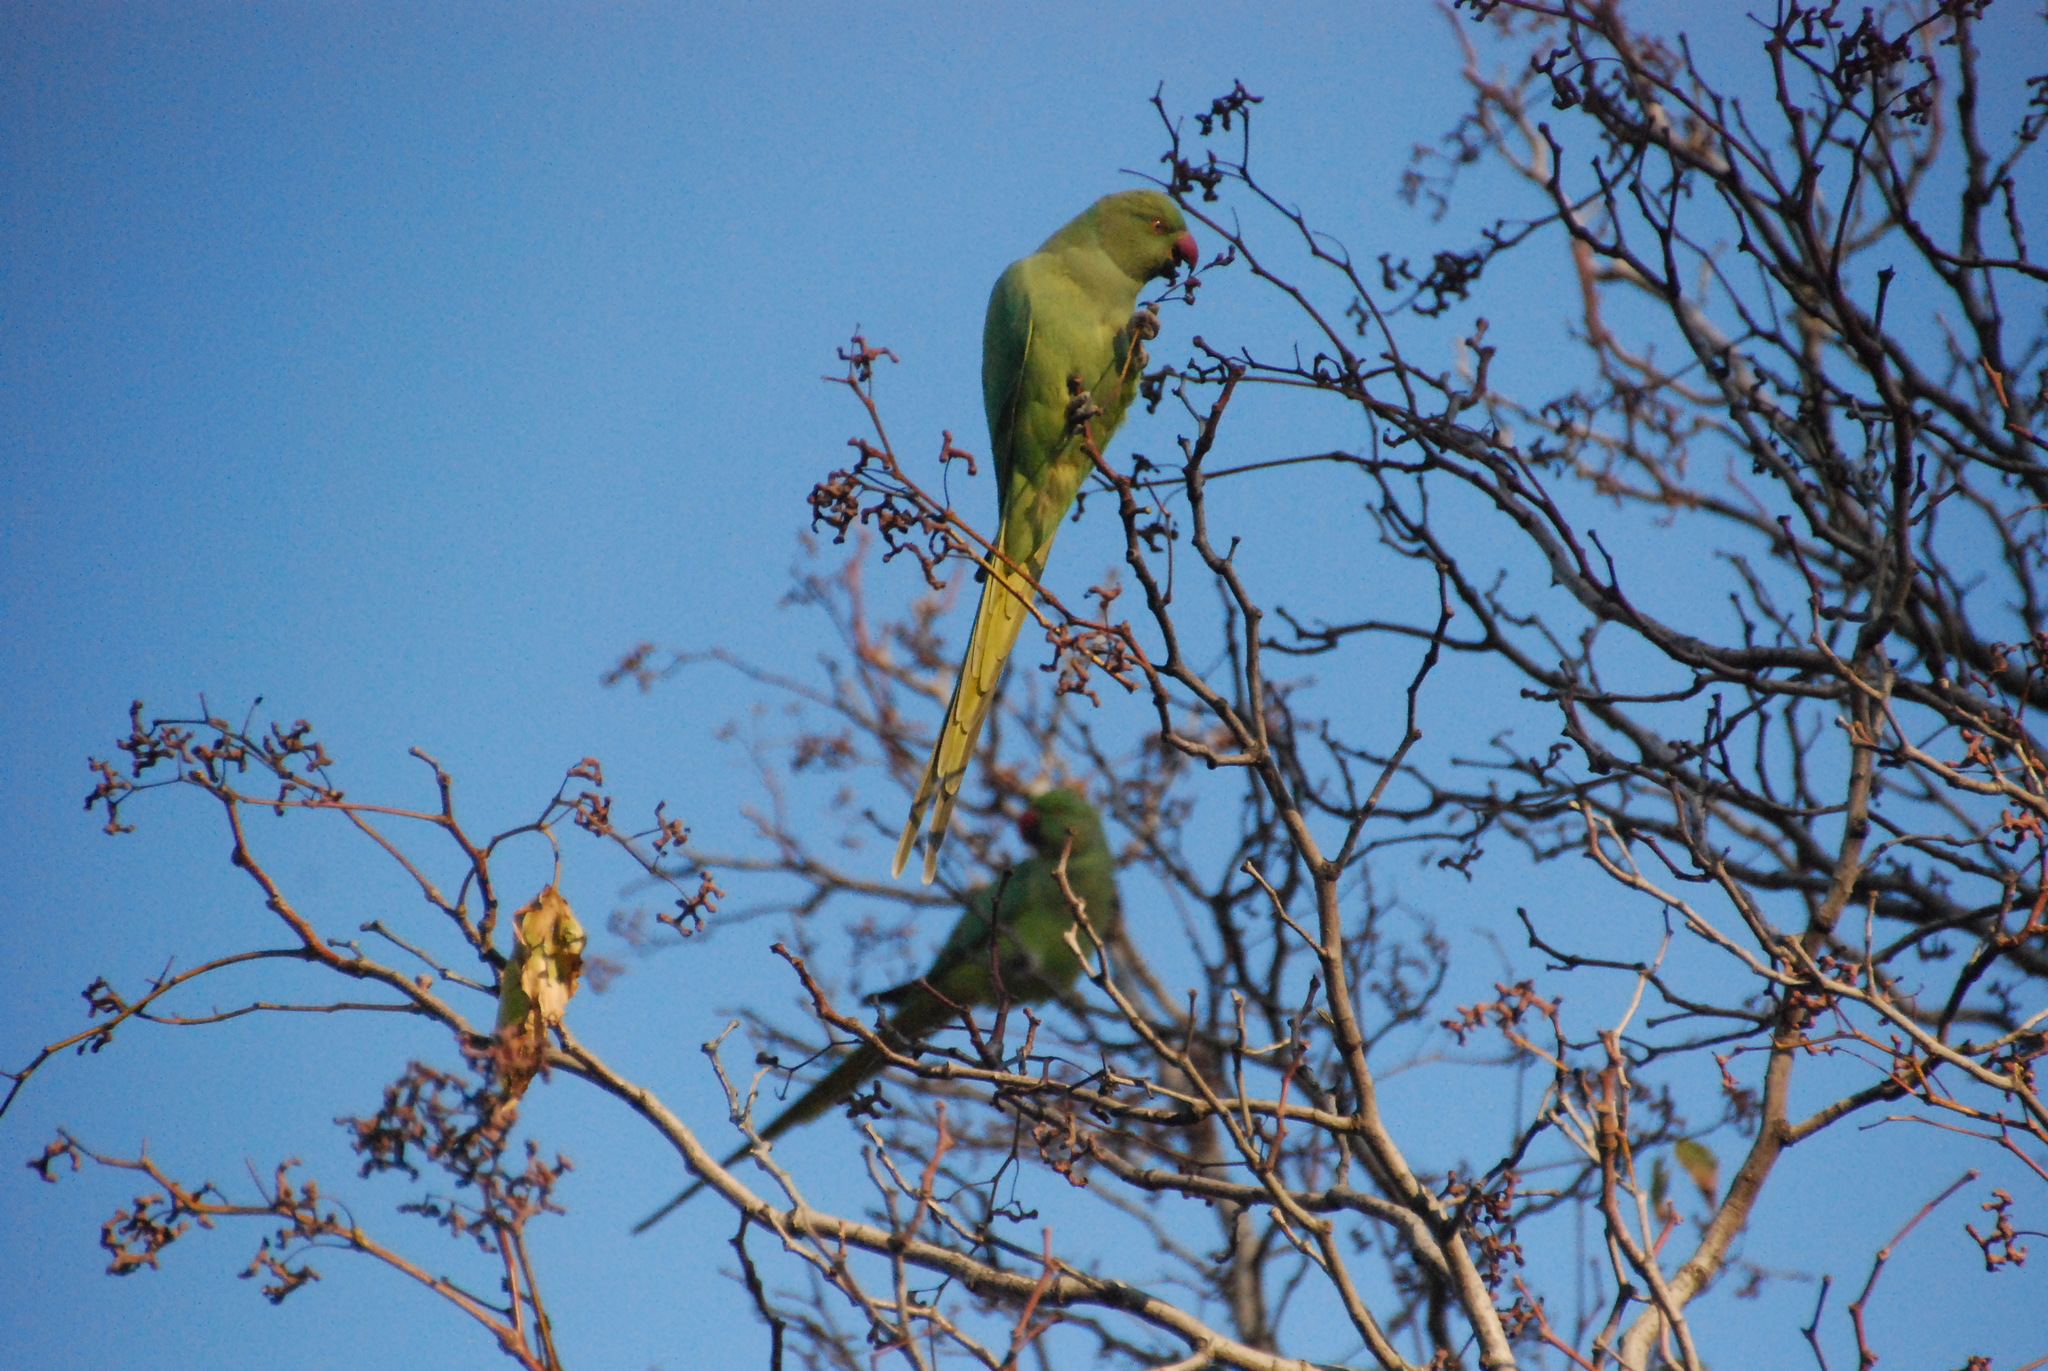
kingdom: Animalia
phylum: Chordata
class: Aves
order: Psittaciformes
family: Psittacidae
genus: Psittacula
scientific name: Psittacula krameri
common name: Rose-ringed parakeet
